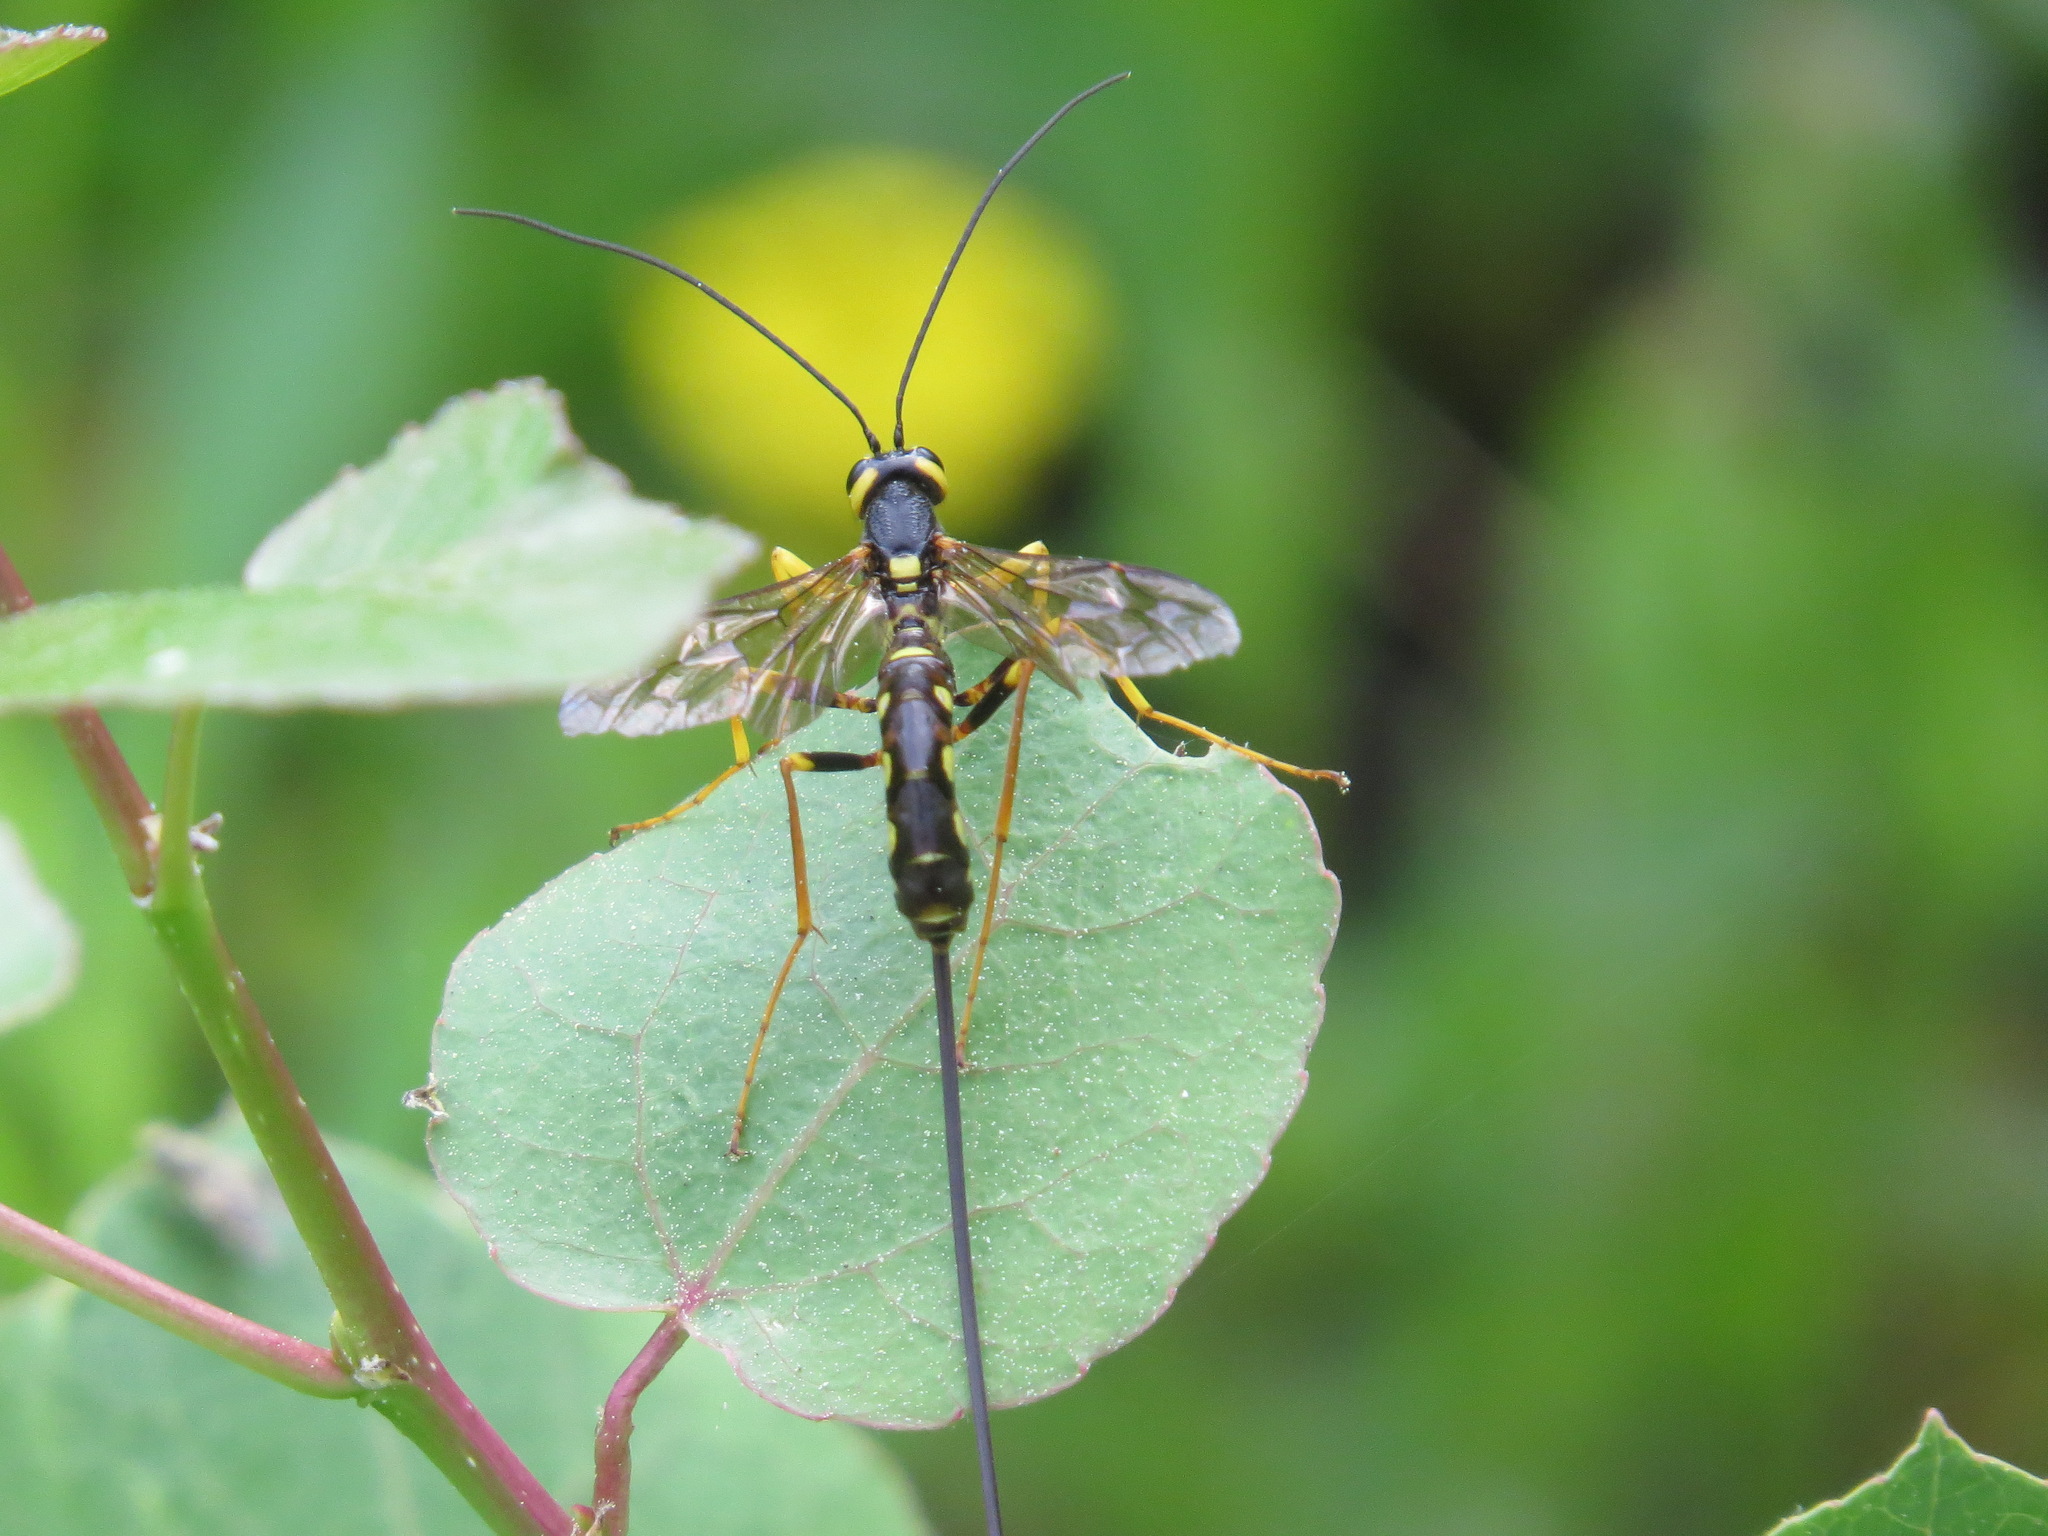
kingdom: Animalia
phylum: Arthropoda
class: Insecta
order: Hymenoptera
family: Ichneumonidae
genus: Megarhyssa
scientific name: Megarhyssa nortoni
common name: Norton's giant ichneumonid wasp
